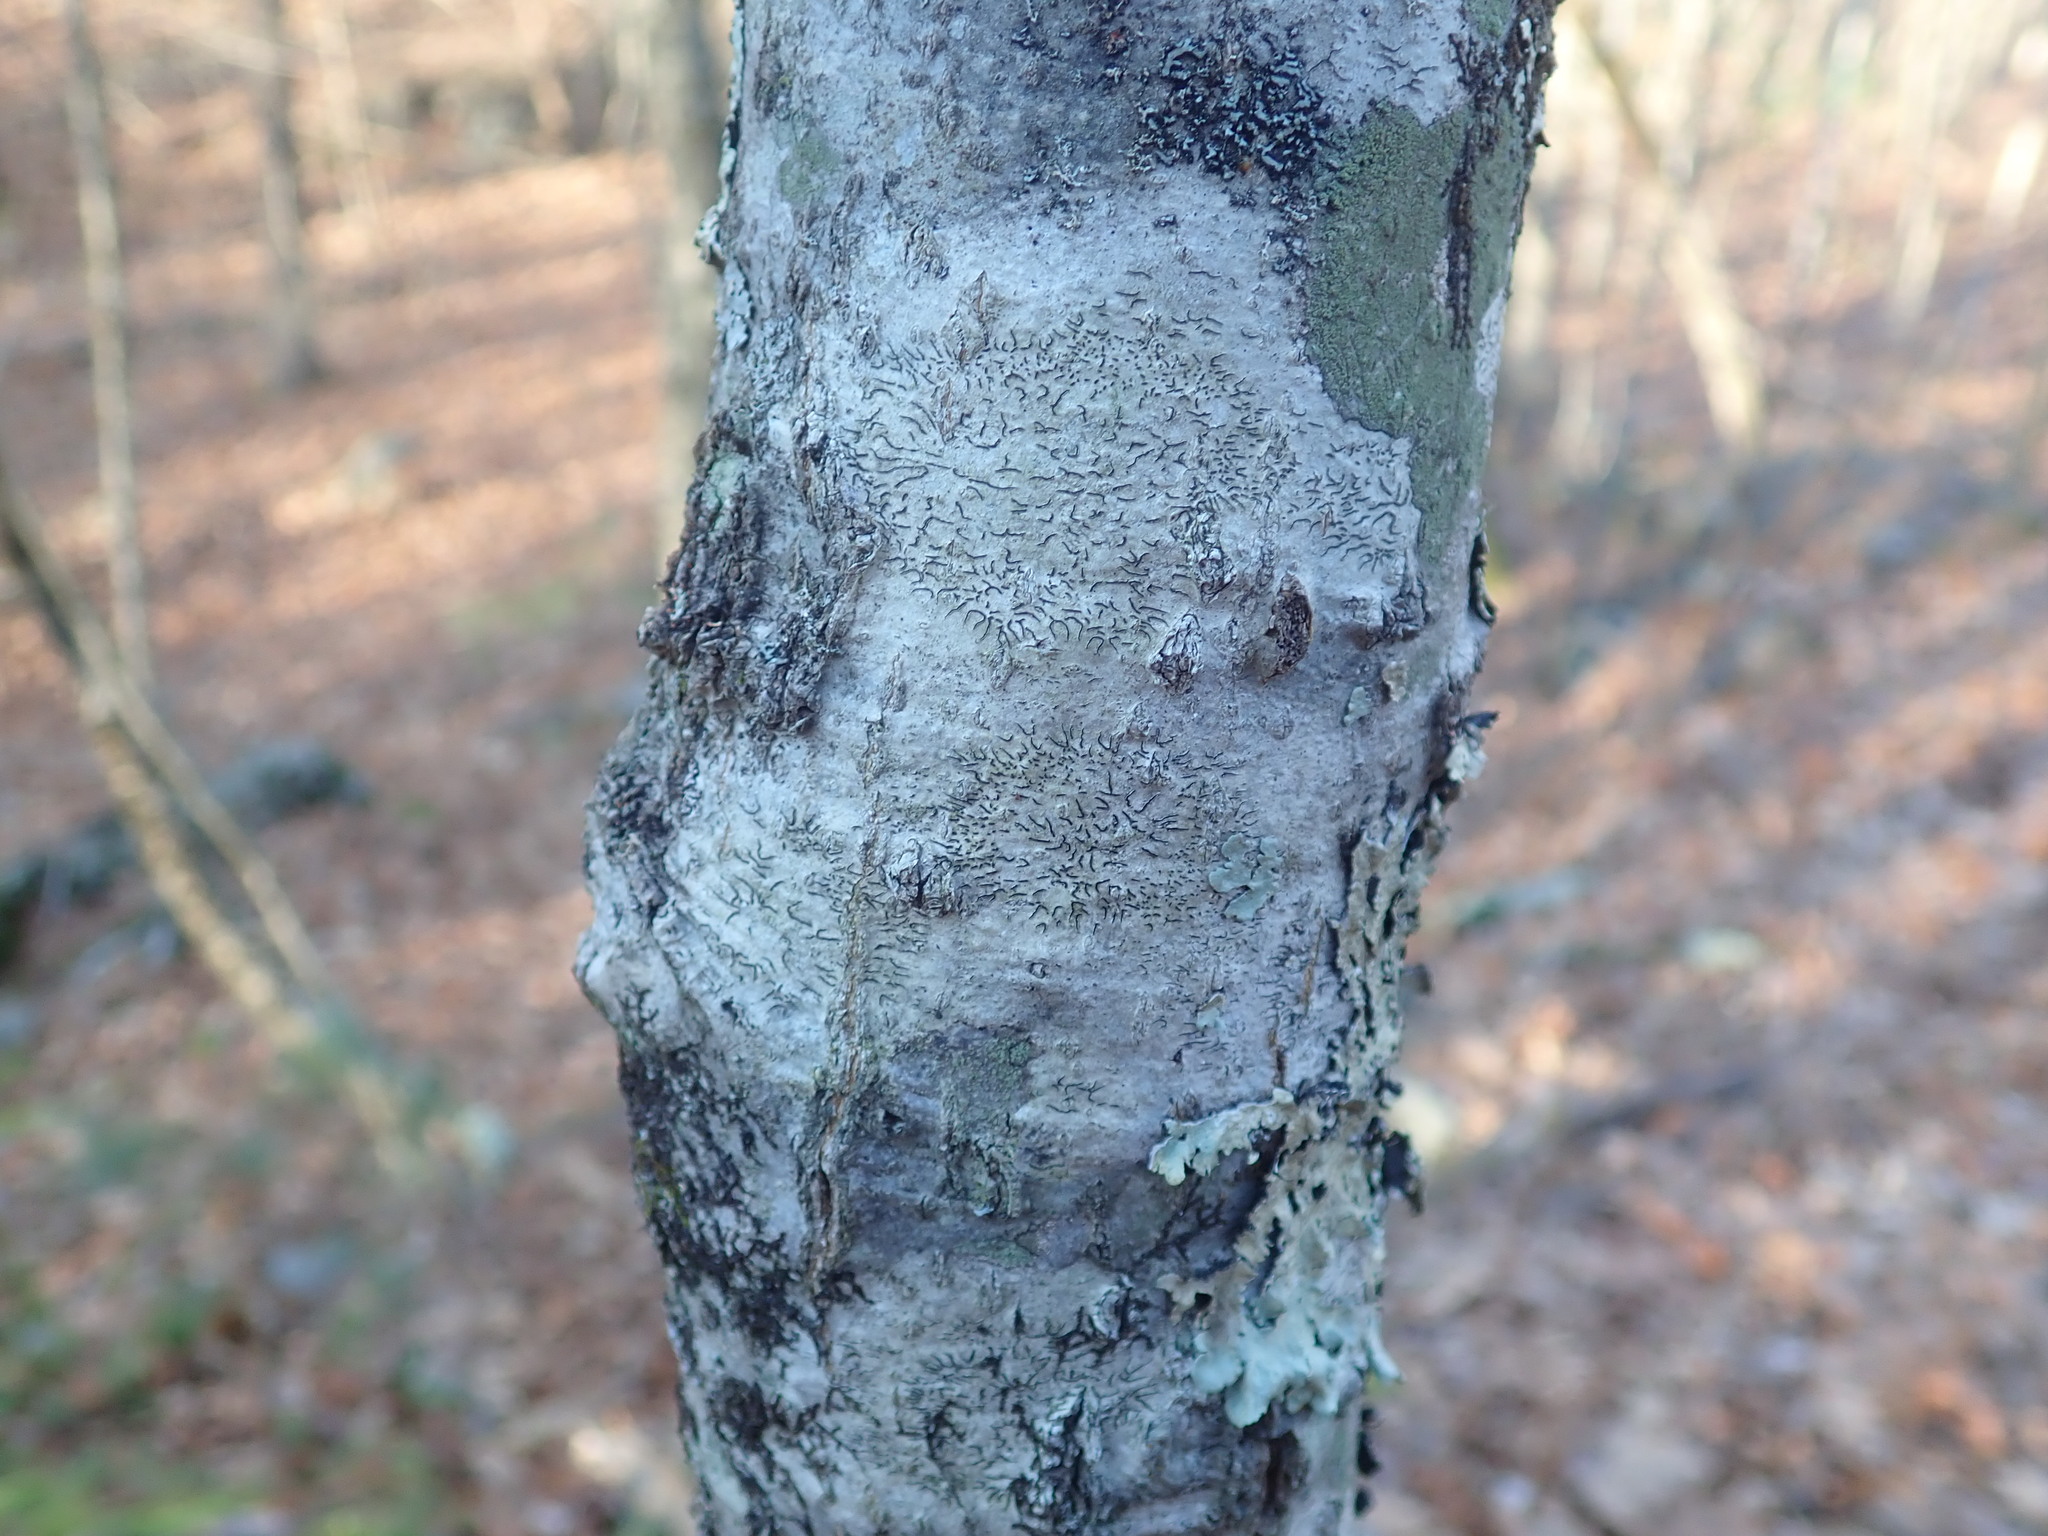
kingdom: Fungi
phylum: Ascomycota
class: Lecanoromycetes
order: Ostropales
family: Graphidaceae
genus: Graphis
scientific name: Graphis scripta
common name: Script lichen
